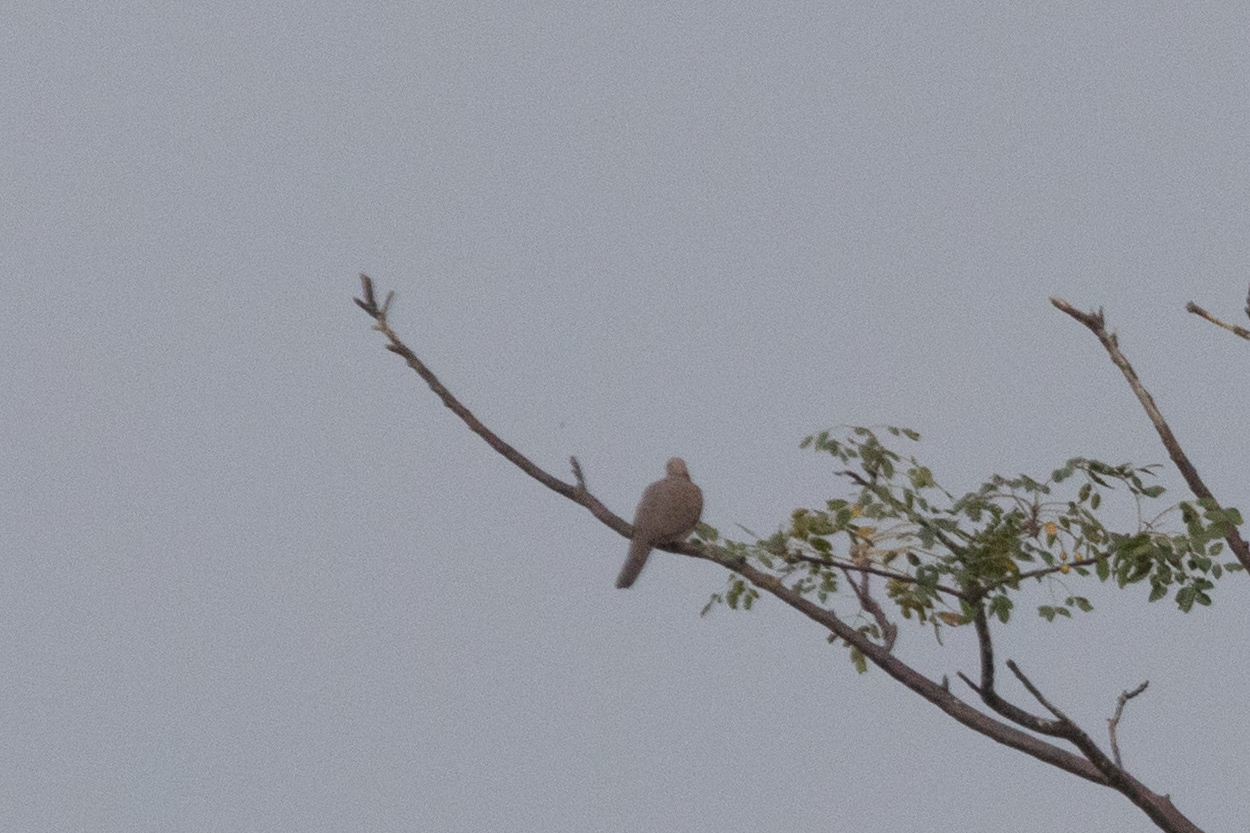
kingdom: Animalia
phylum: Chordata
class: Aves
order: Columbiformes
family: Columbidae
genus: Spilopelia
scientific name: Spilopelia chinensis
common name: Spotted dove
